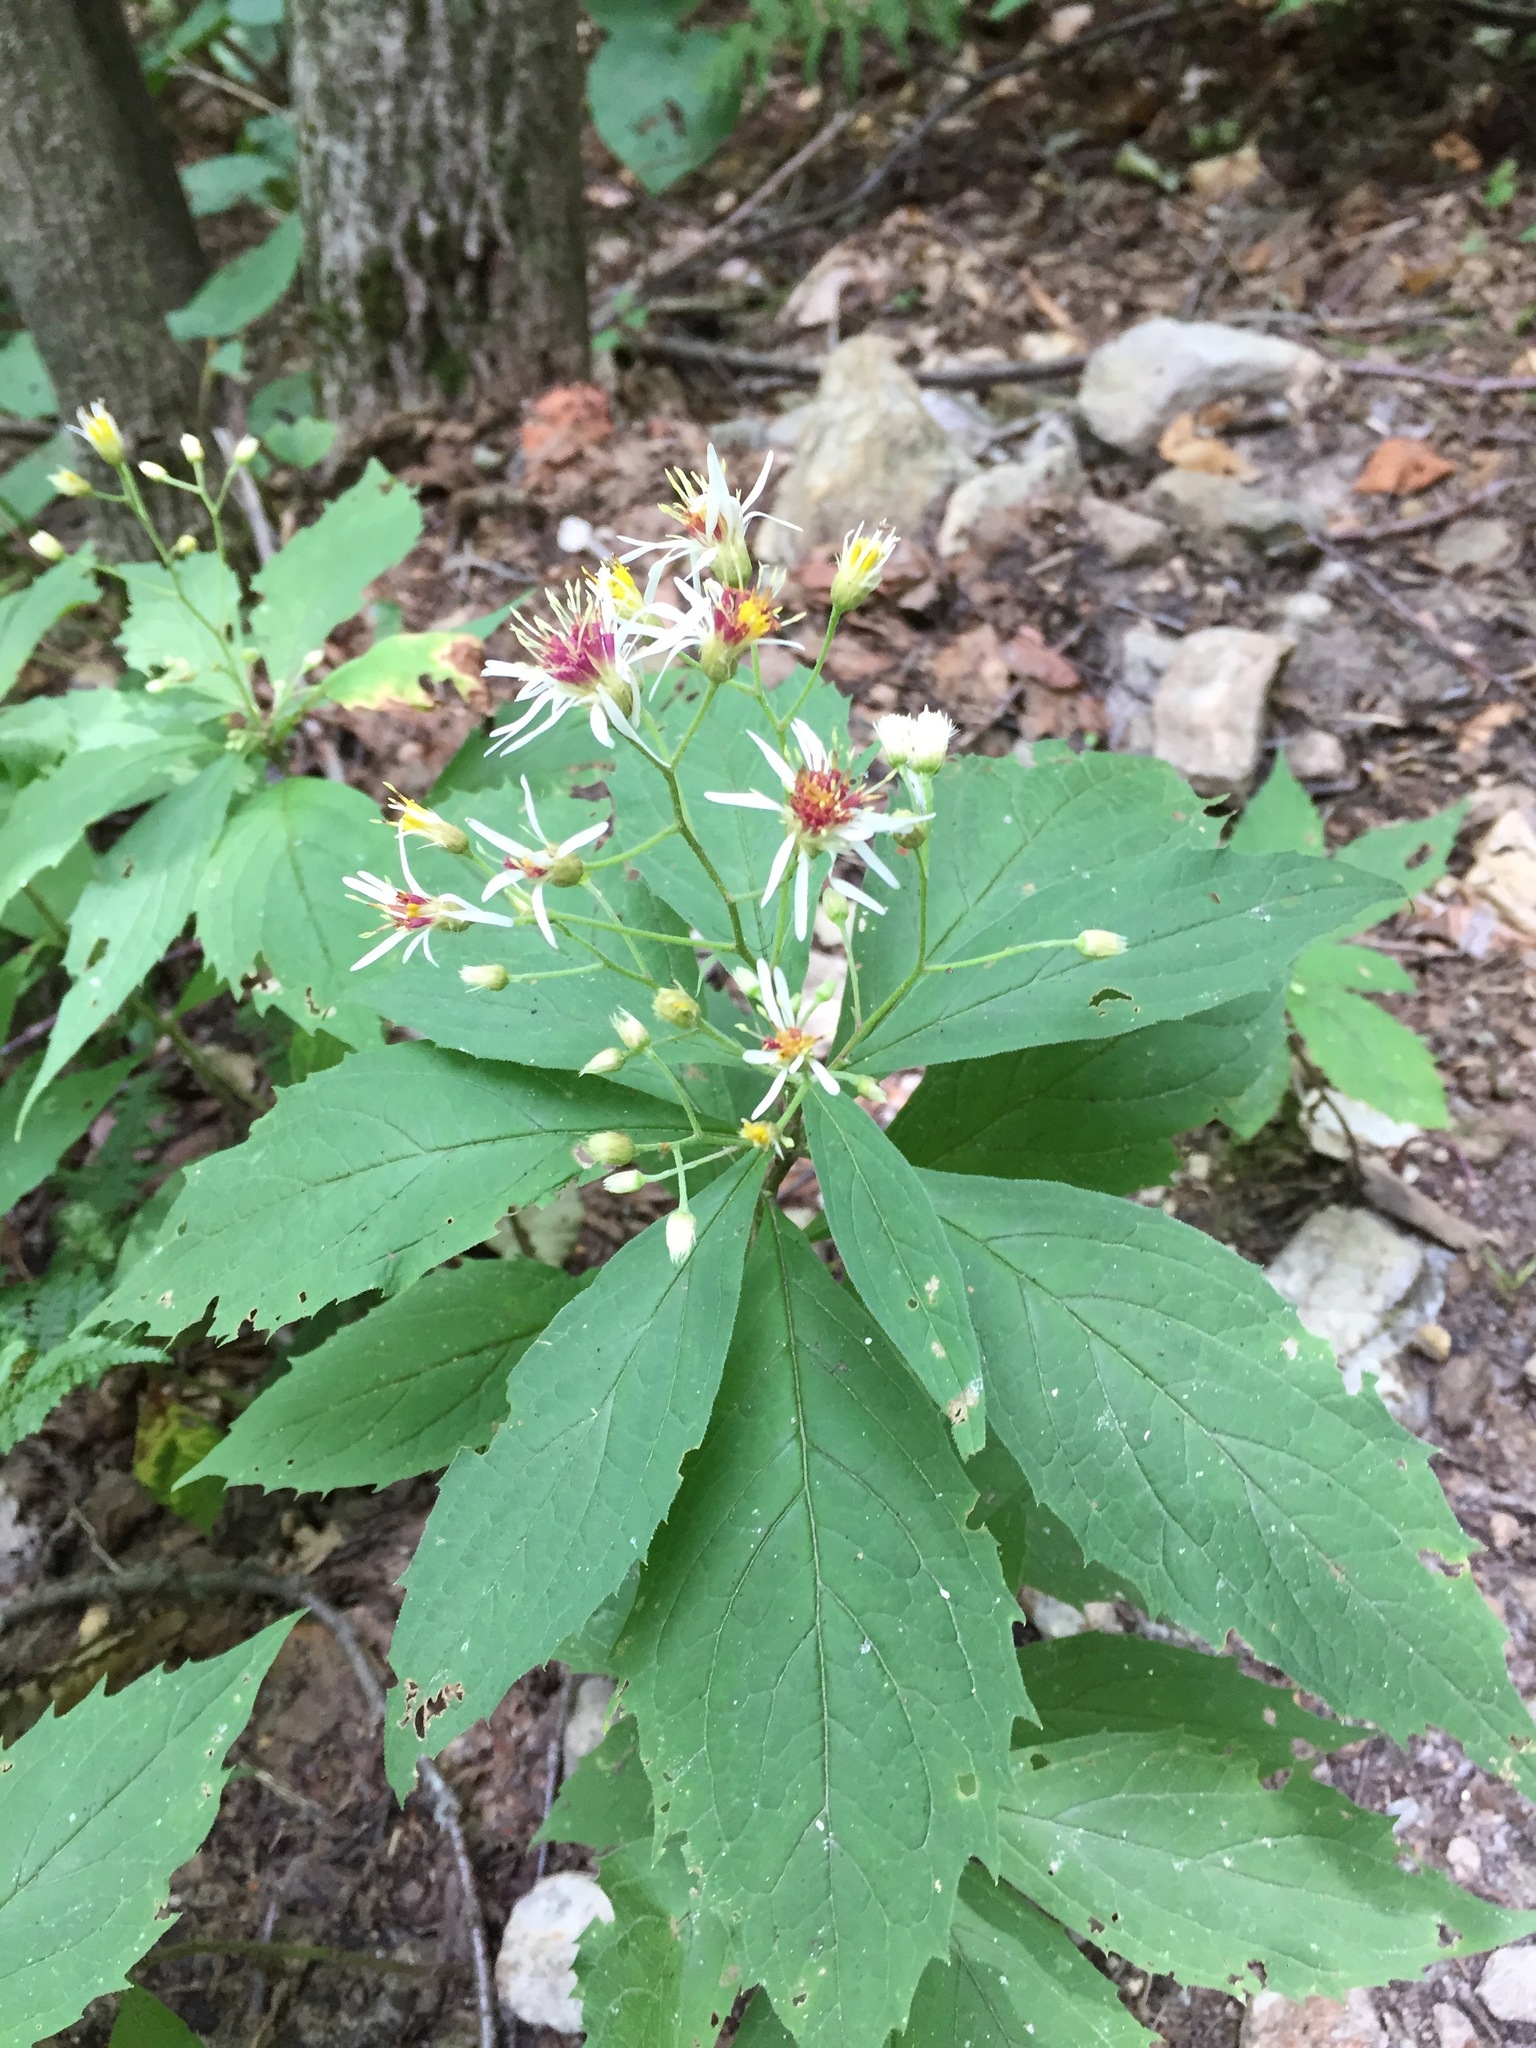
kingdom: Plantae
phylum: Tracheophyta
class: Magnoliopsida
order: Asterales
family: Asteraceae
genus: Oclemena
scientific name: Oclemena acuminata
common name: Mountain aster
